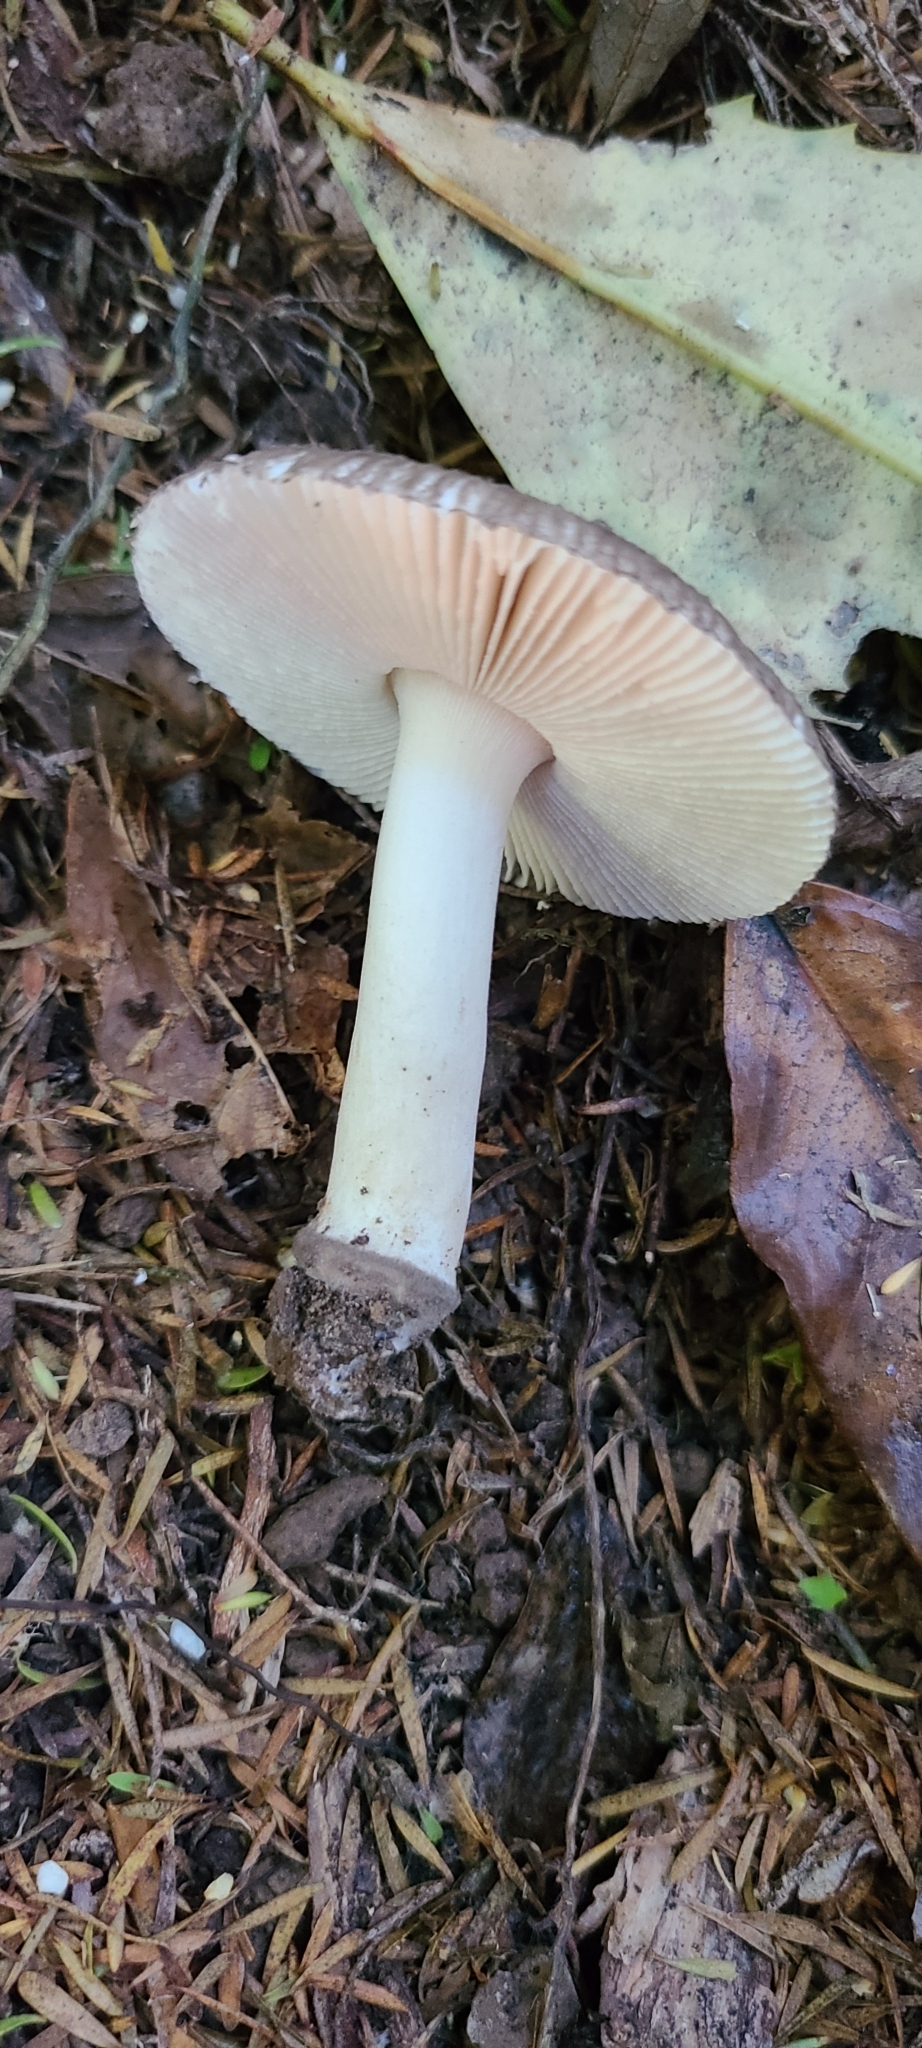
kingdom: Fungi
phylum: Basidiomycota
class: Agaricomycetes
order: Agaricales
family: Amanitaceae
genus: Amanita
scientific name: Amanita nehuta
